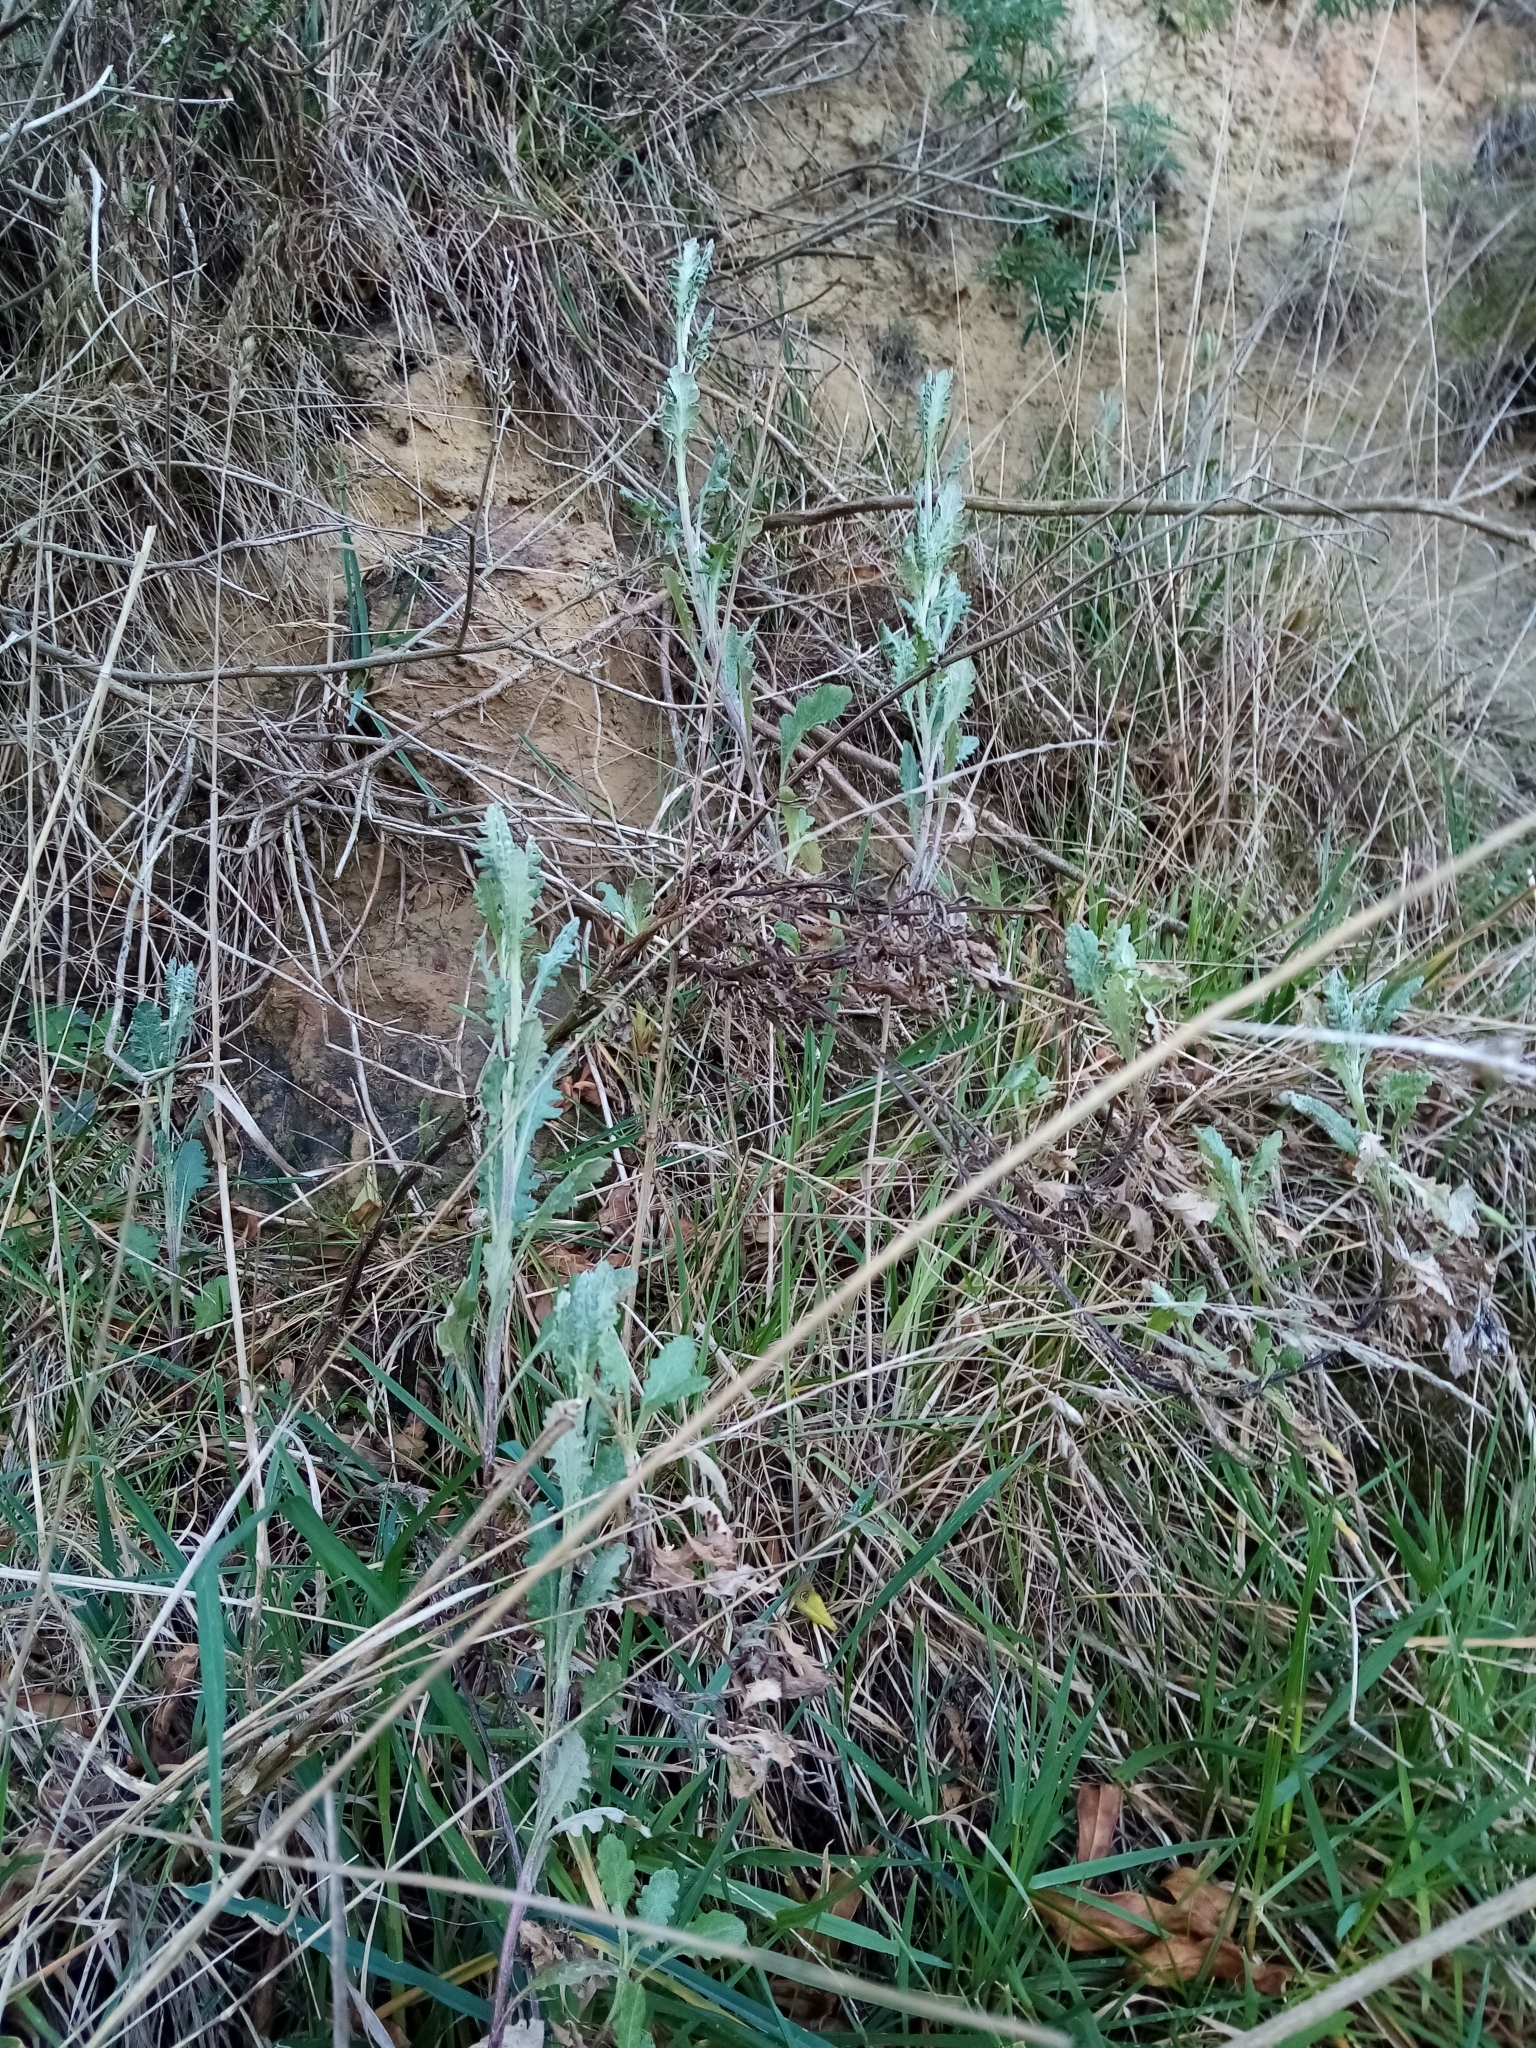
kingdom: Plantae
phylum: Tracheophyta
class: Magnoliopsida
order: Asterales
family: Asteraceae
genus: Senecio
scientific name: Senecio glomeratus
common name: Cutleaf burnweed
